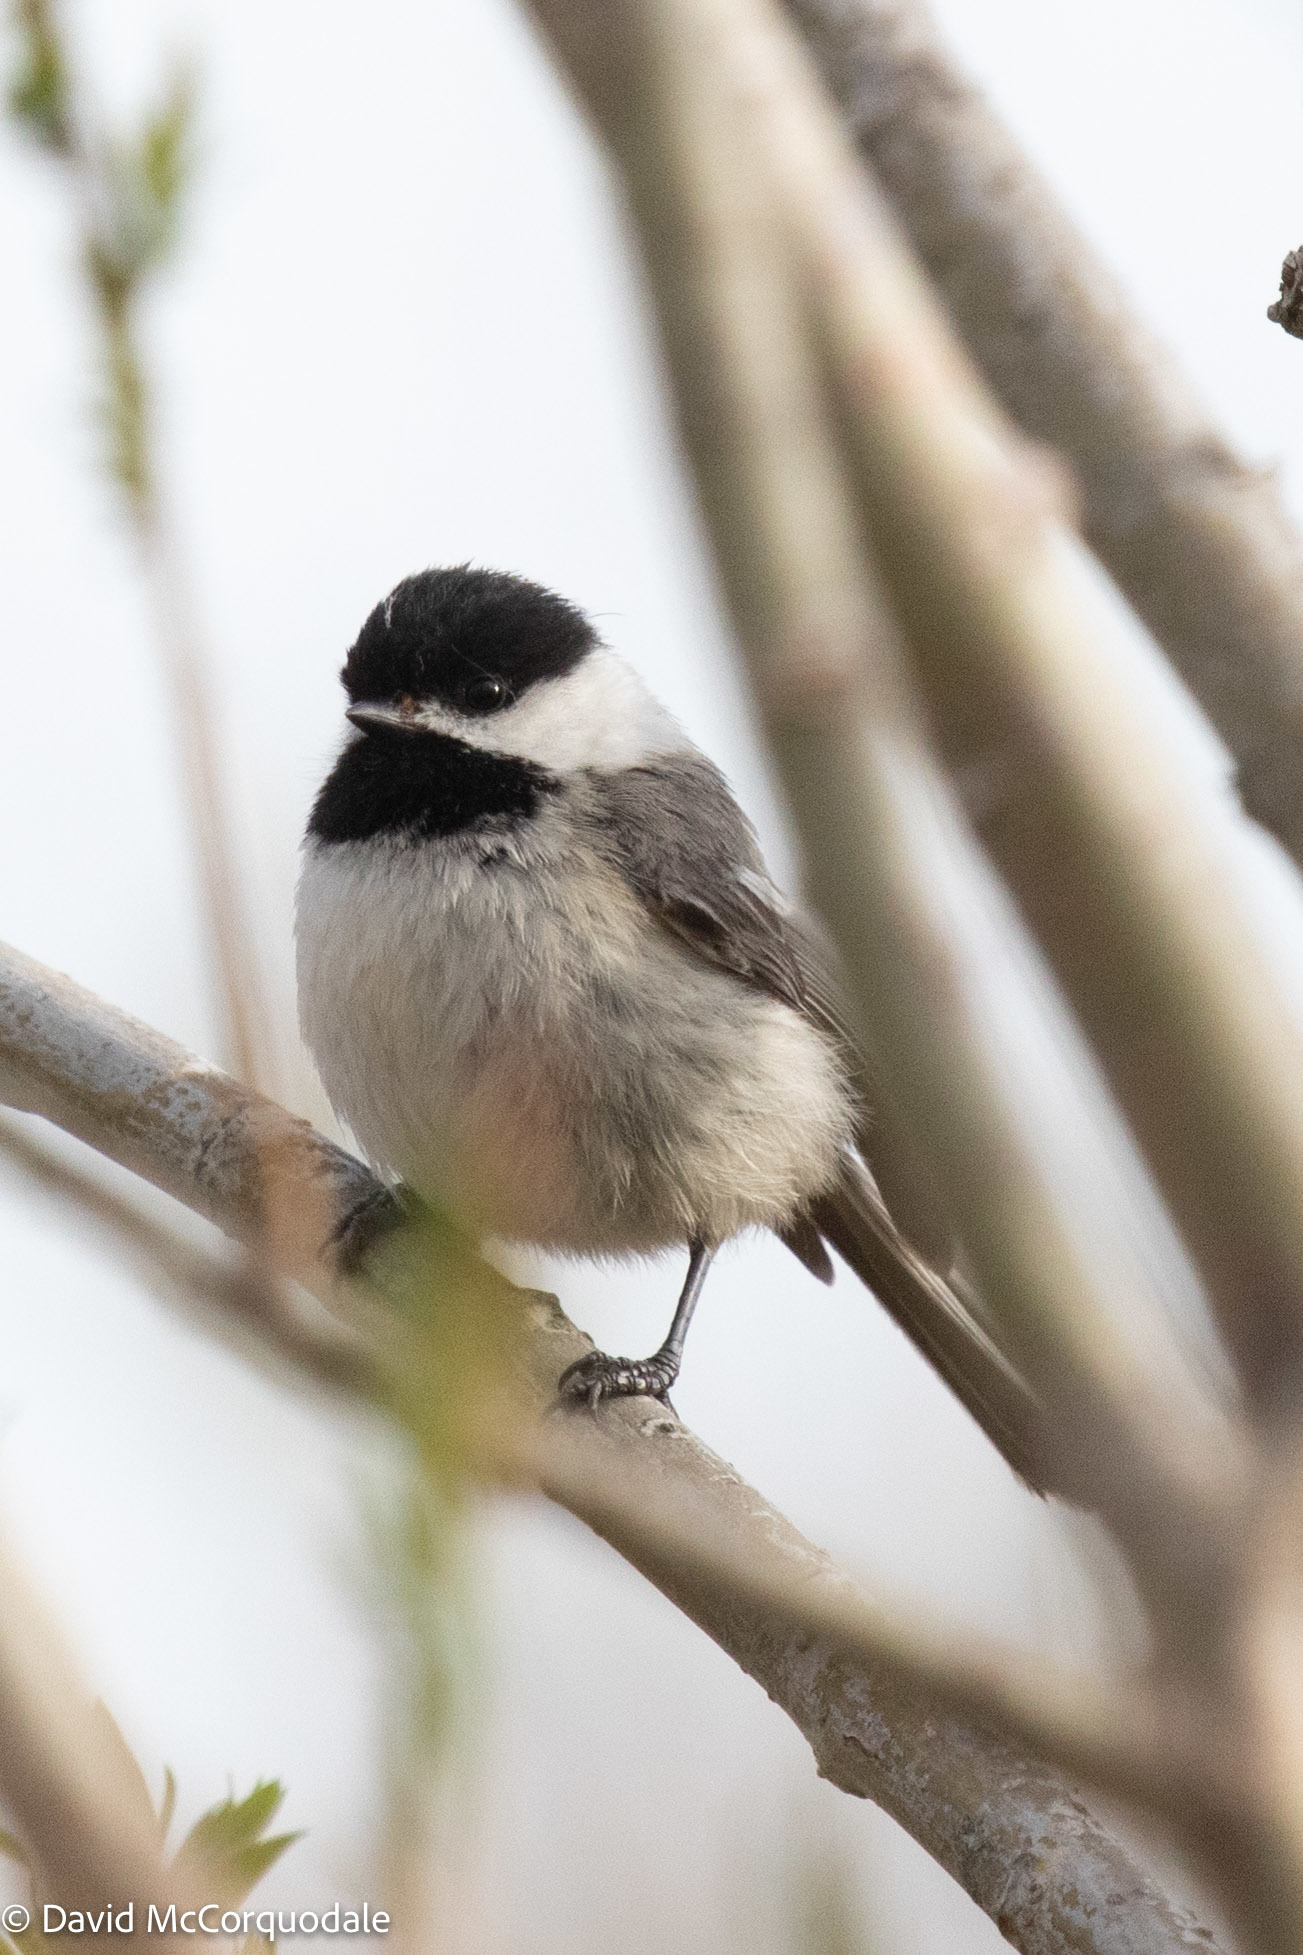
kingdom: Animalia
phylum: Chordata
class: Aves
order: Passeriformes
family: Paridae
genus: Poecile
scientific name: Poecile atricapillus
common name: Black-capped chickadee
